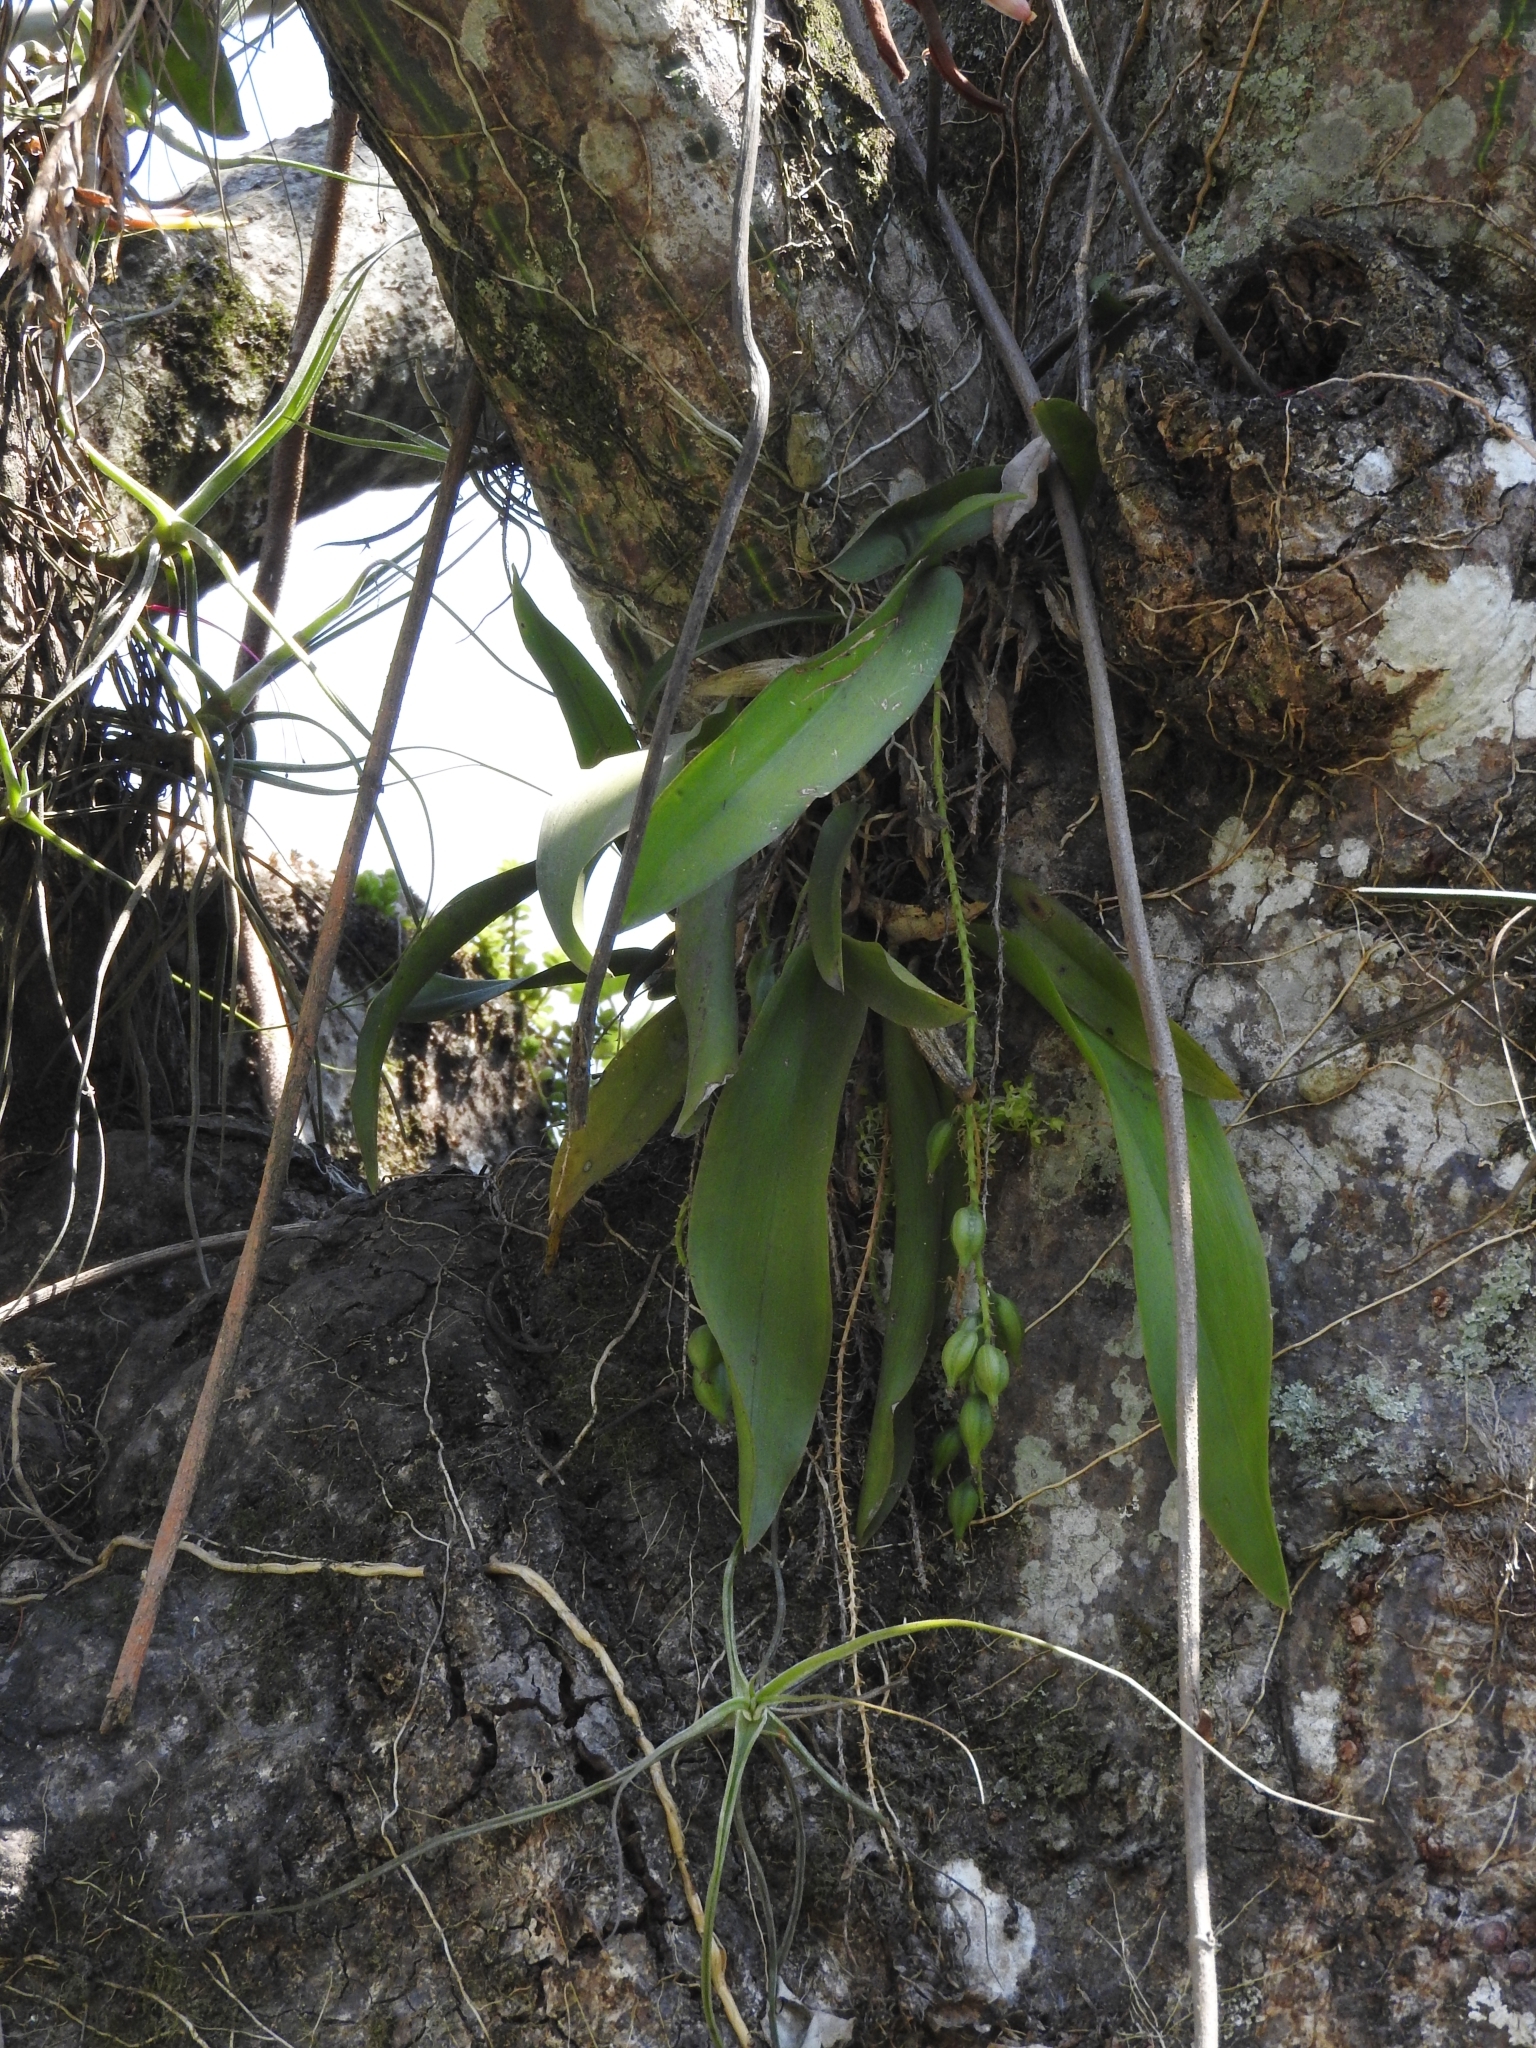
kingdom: Plantae
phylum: Tracheophyta
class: Liliopsida
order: Asparagales
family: Orchidaceae
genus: Notylia
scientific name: Notylia barkeri
